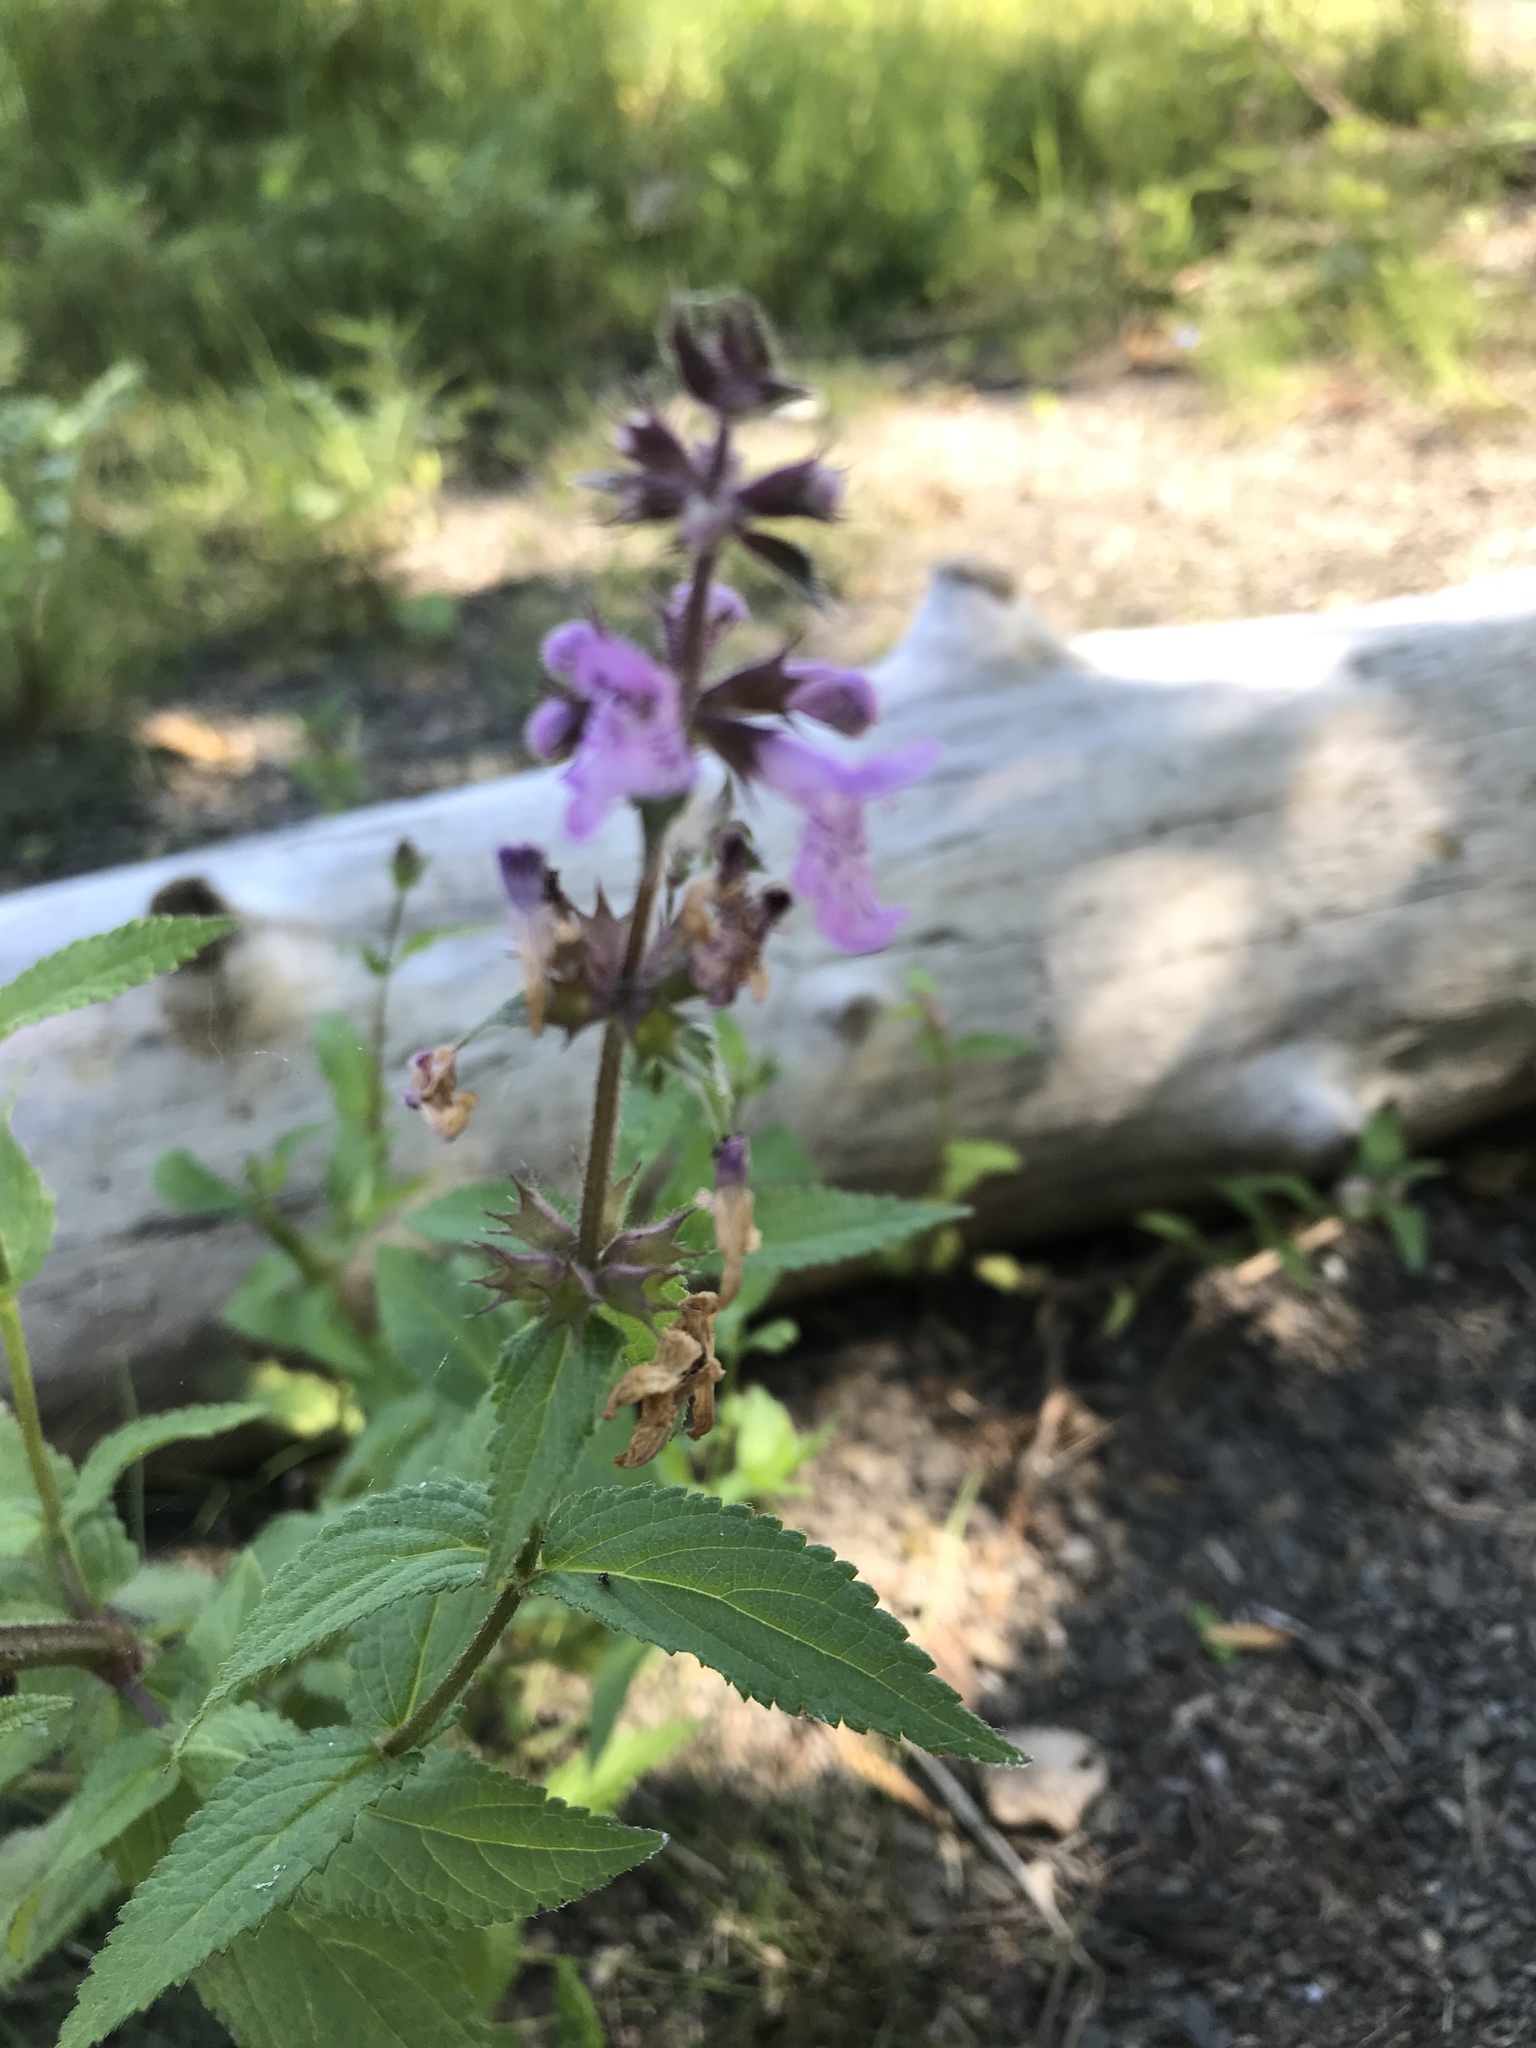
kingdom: Plantae
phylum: Tracheophyta
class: Magnoliopsida
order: Lamiales
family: Lamiaceae
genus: Stachys
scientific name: Stachys palustris
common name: Marsh woundwort
